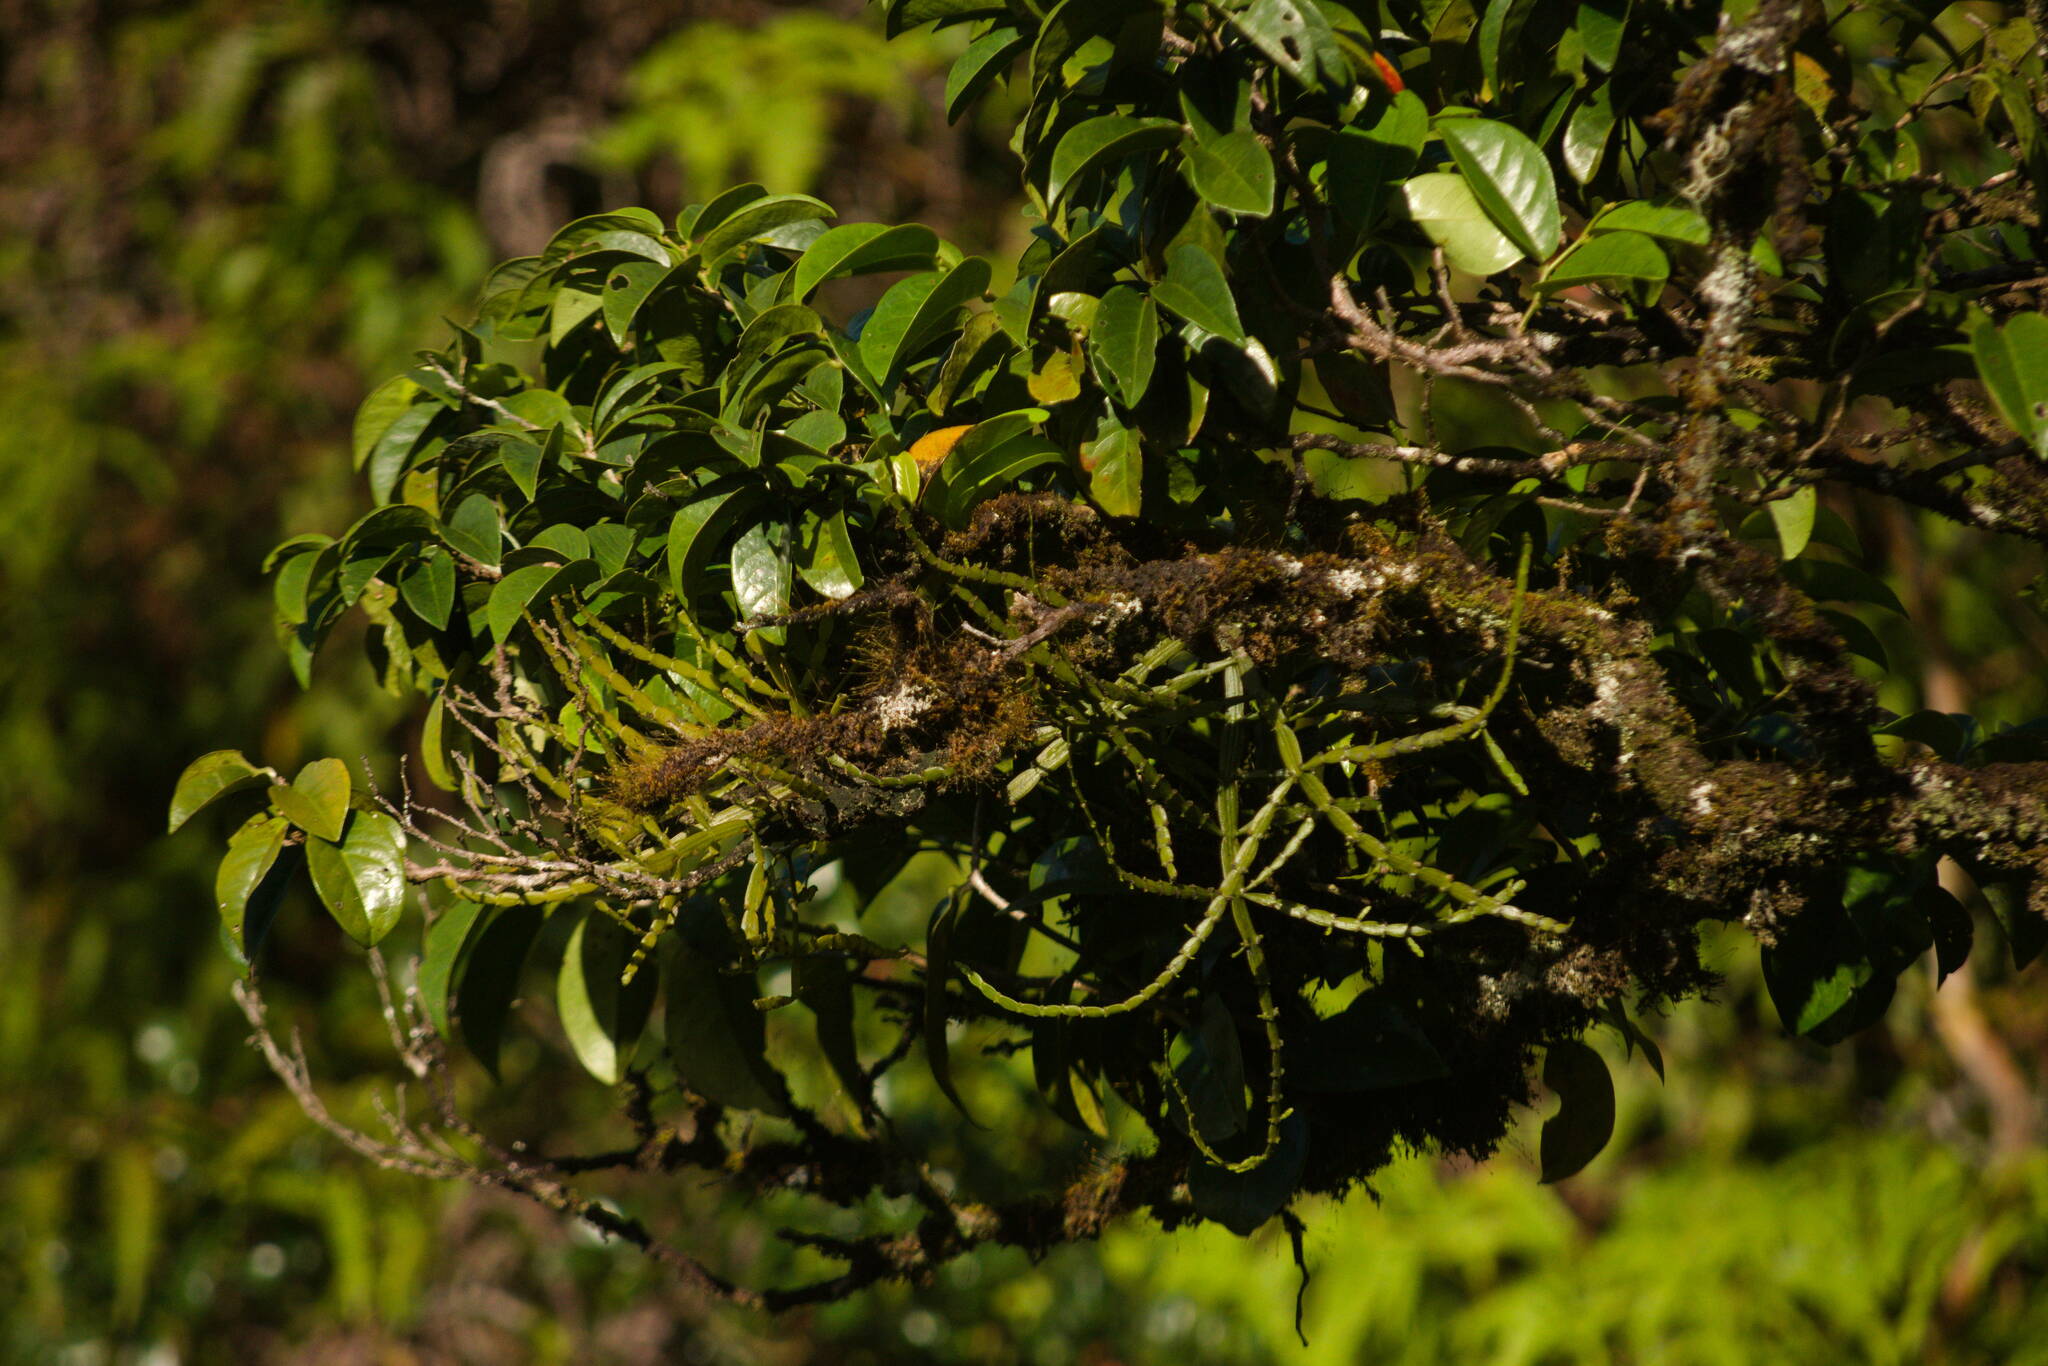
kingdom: Plantae
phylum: Tracheophyta
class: Magnoliopsida
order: Santalales
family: Viscaceae
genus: Korthalsella
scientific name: Korthalsella complanata
